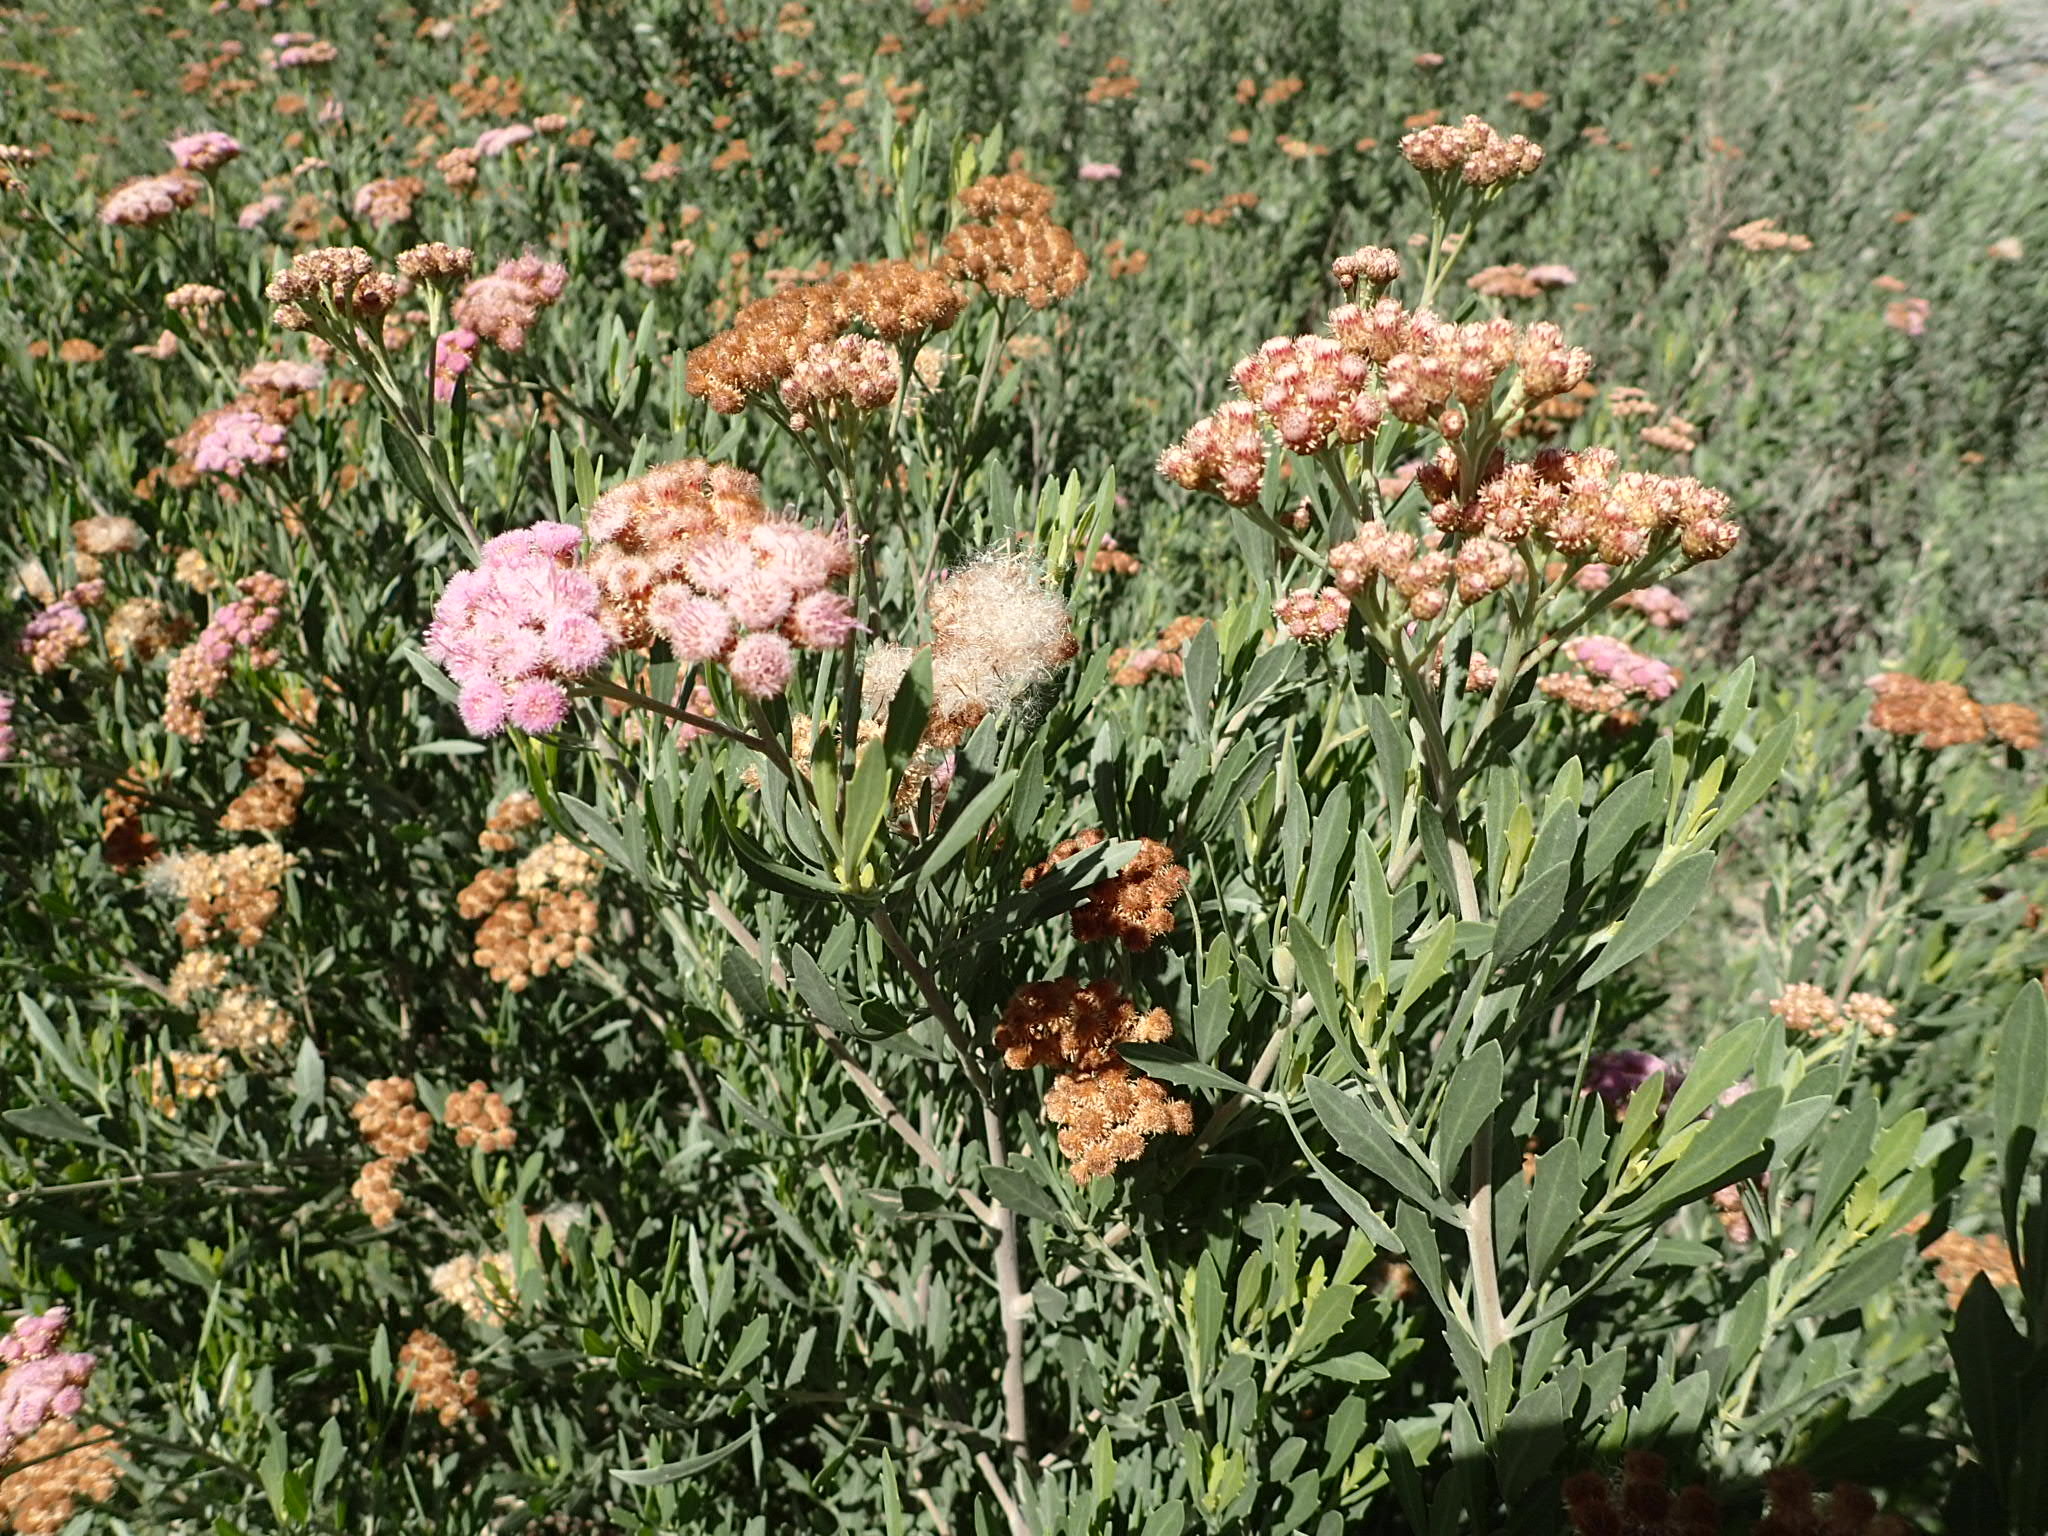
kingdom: Plantae
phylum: Tracheophyta
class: Magnoliopsida
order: Asterales
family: Asteraceae
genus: Tessaria
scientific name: Tessaria absinthioides
